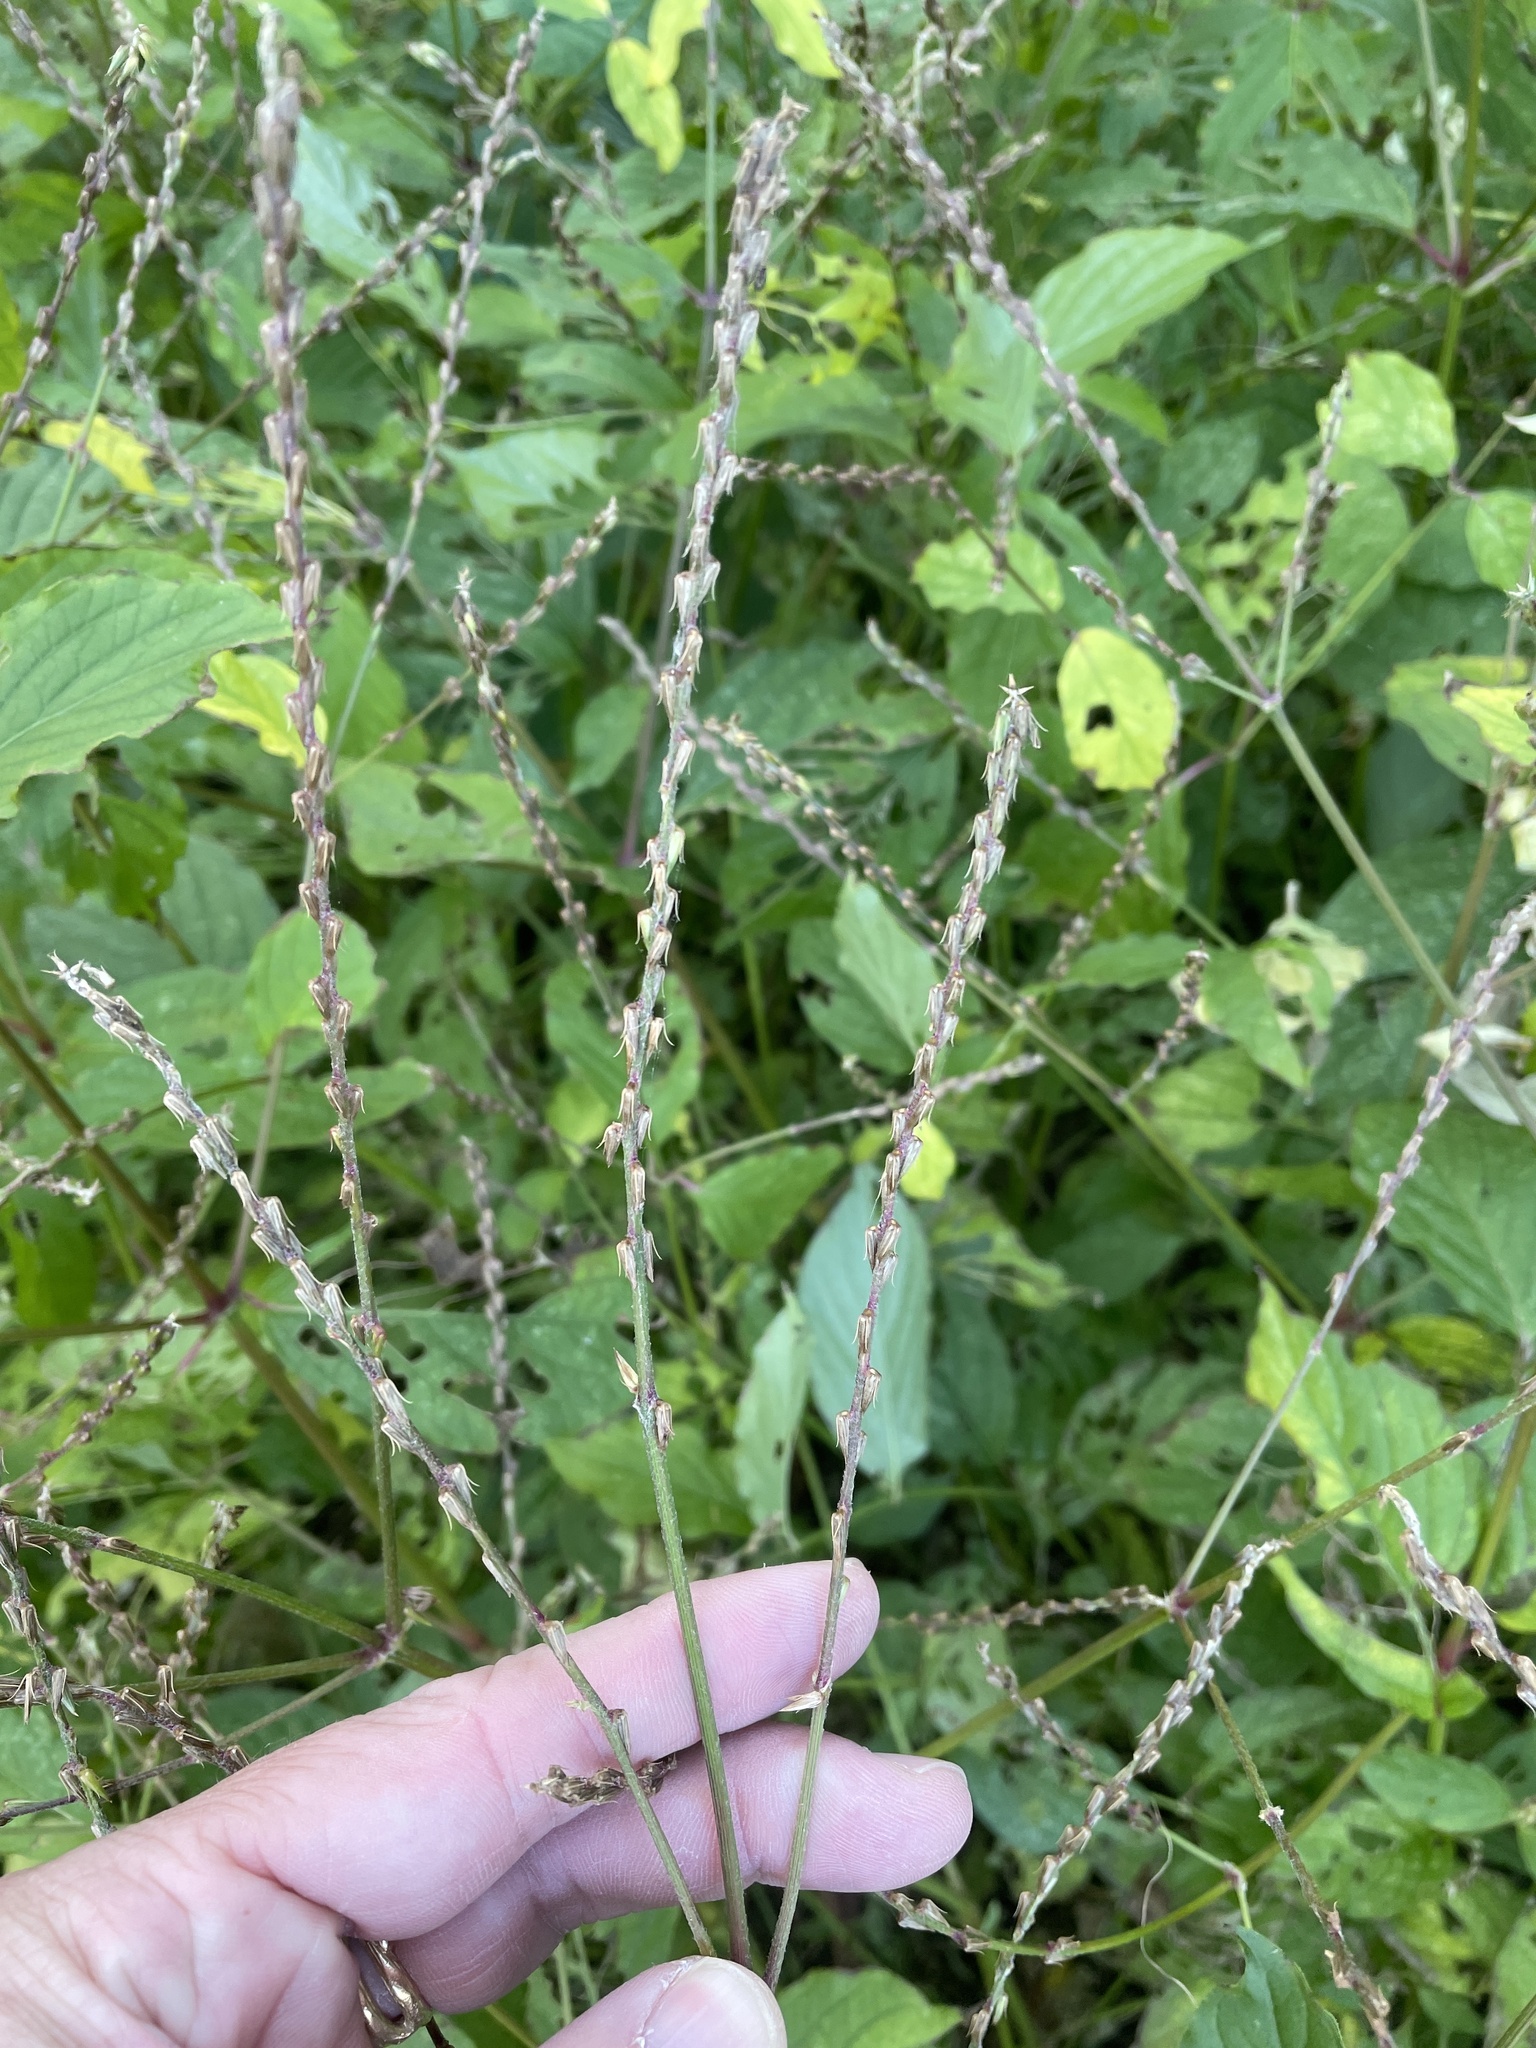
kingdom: Plantae
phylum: Tracheophyta
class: Magnoliopsida
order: Caryophyllales
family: Amaranthaceae
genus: Achyranthes
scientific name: Achyranthes bidentata
